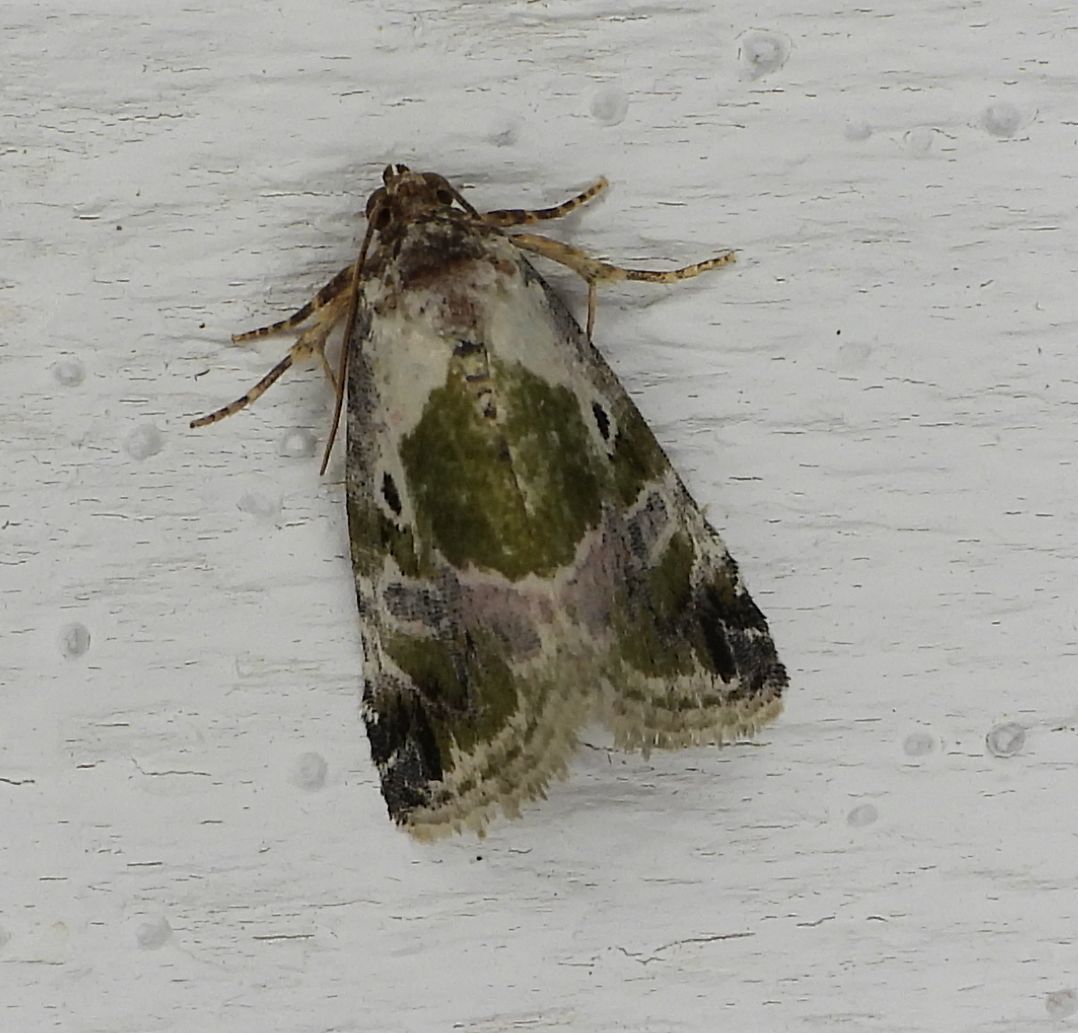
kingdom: Animalia
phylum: Arthropoda
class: Insecta
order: Lepidoptera
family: Noctuidae
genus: Maliattha
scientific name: Maliattha synochitis
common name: Black-dotted glyph
